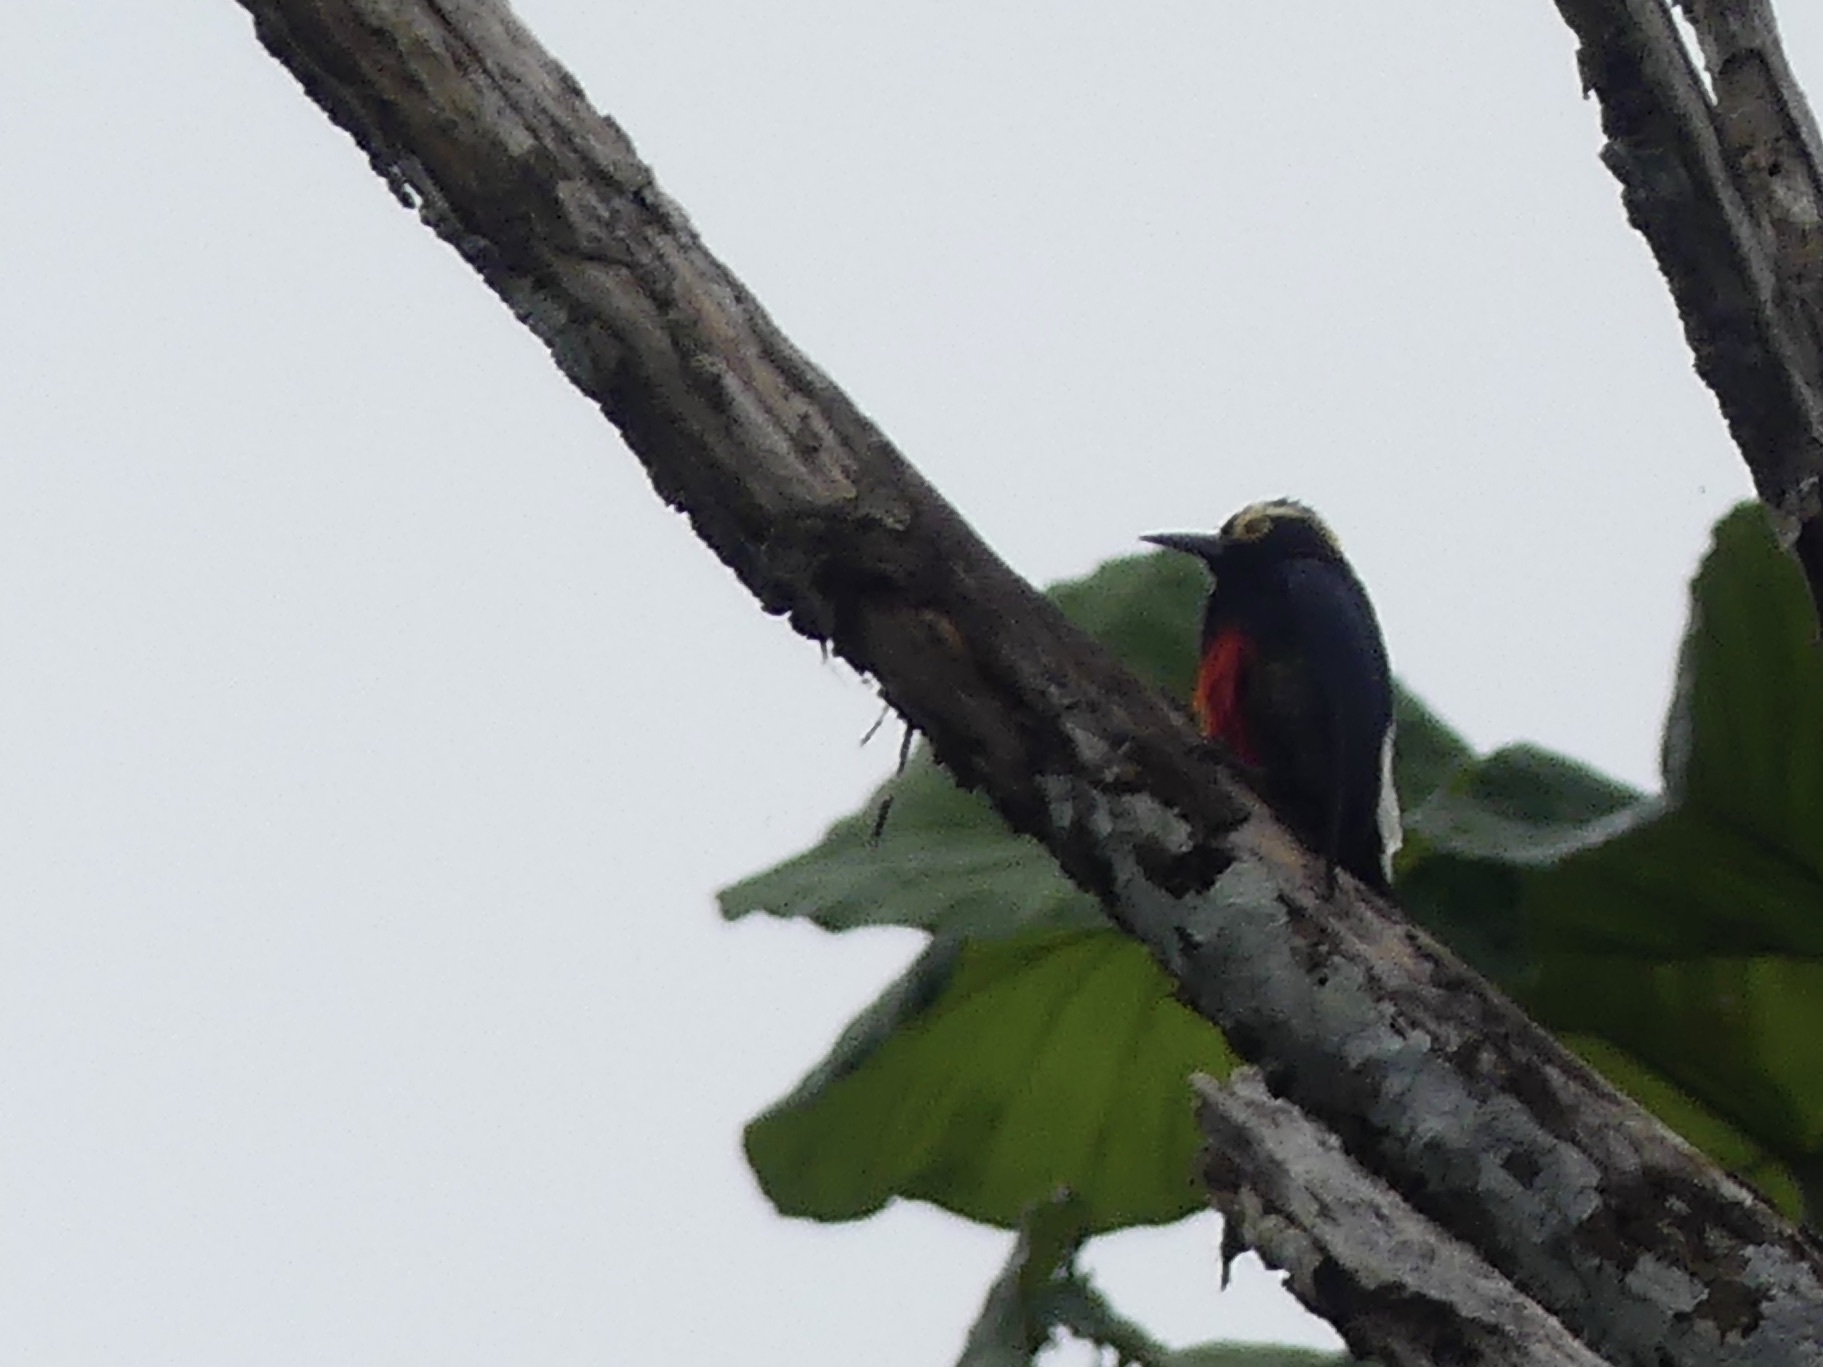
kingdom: Animalia
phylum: Chordata
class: Aves
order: Piciformes
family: Picidae
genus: Melanerpes
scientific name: Melanerpes cruentatus
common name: Yellow-tufted woodpecker
